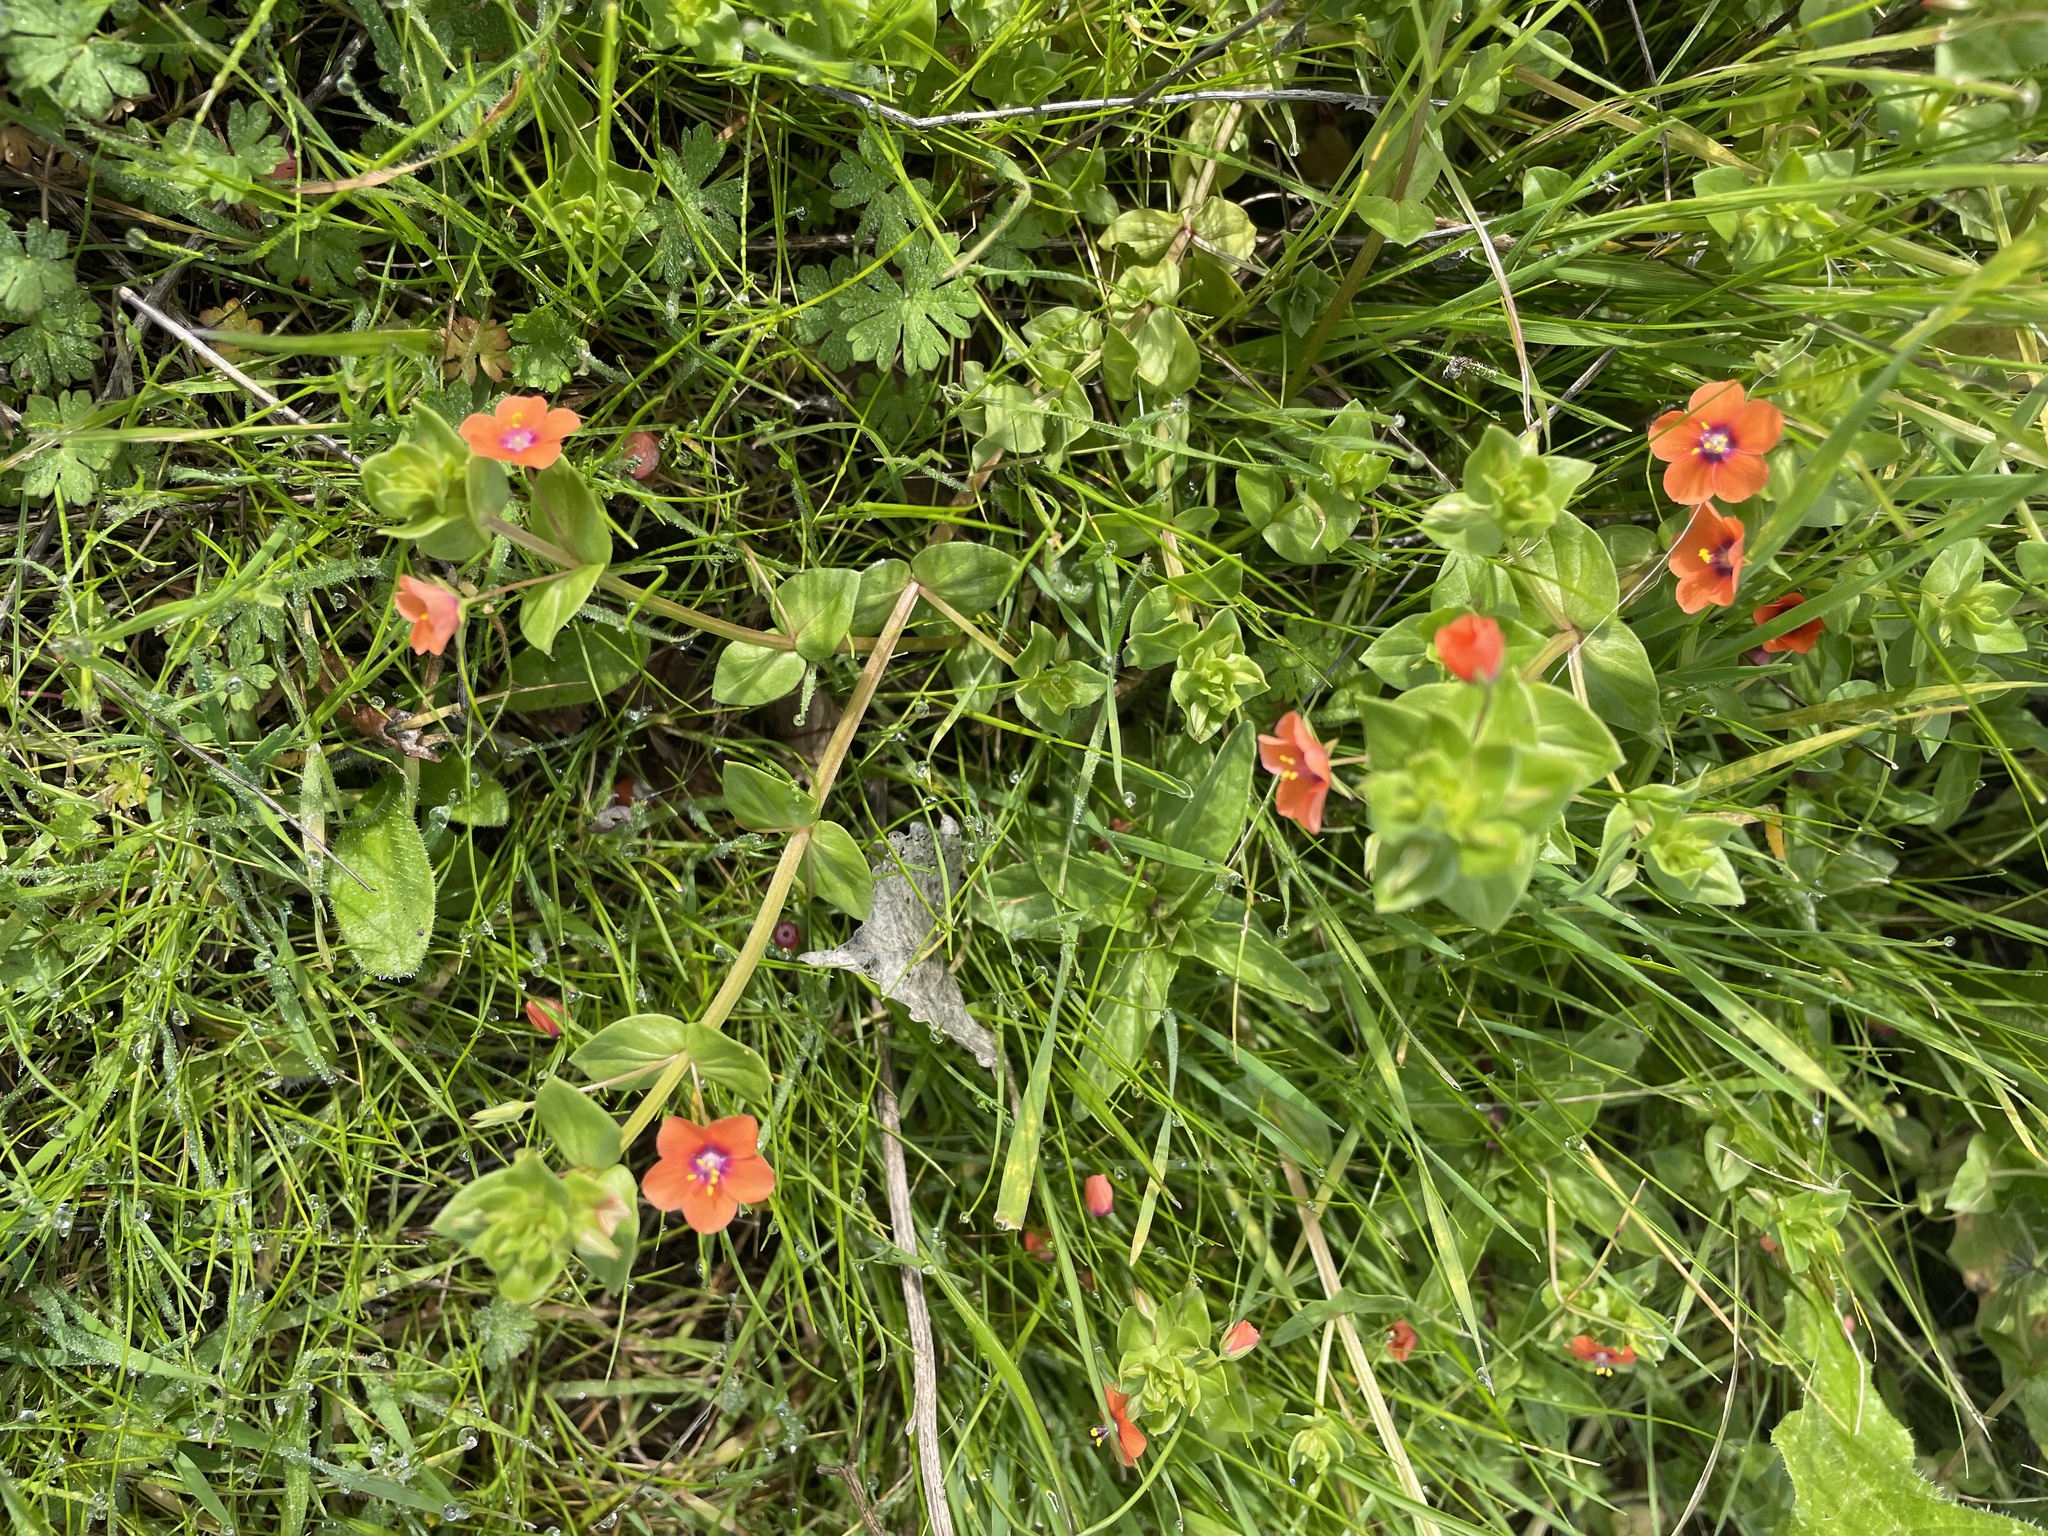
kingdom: Plantae
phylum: Tracheophyta
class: Magnoliopsida
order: Ericales
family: Primulaceae
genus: Lysimachia
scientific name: Lysimachia arvensis
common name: Scarlet pimpernel
